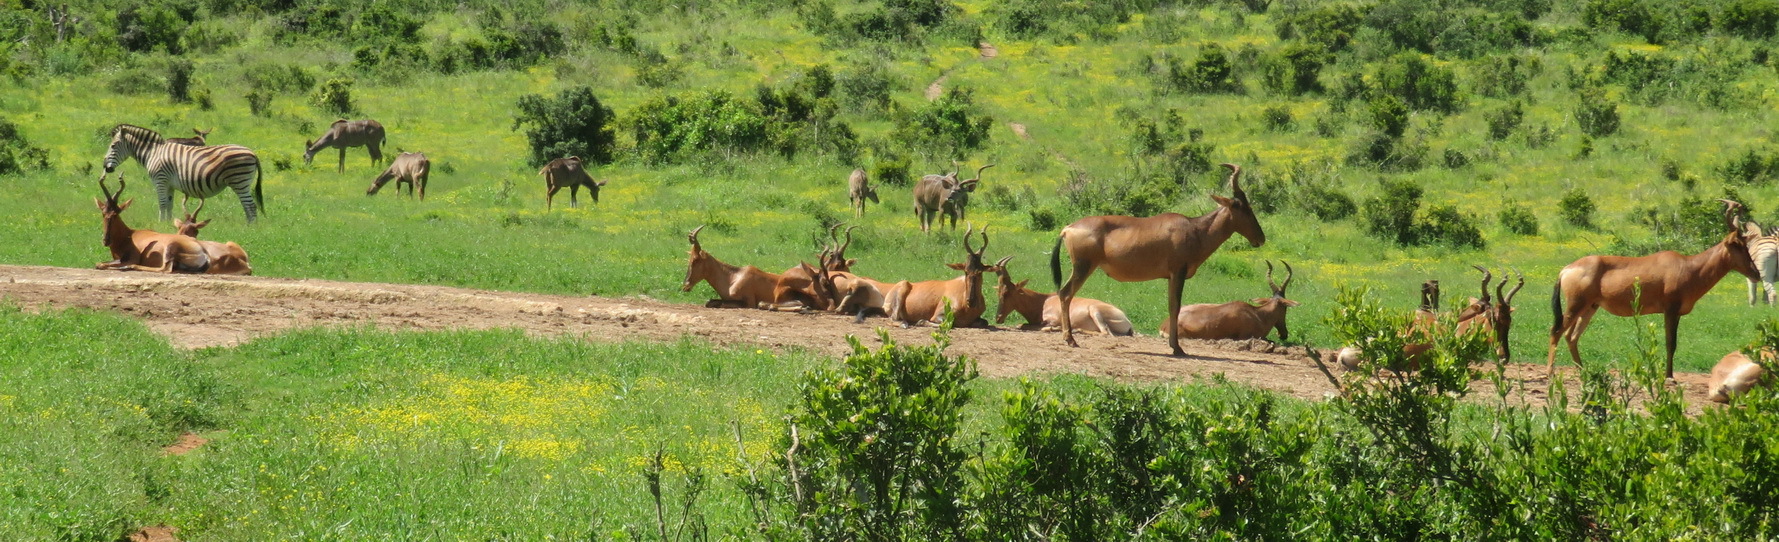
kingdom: Animalia
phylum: Chordata
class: Mammalia
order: Artiodactyla
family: Bovidae
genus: Alcelaphus
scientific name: Alcelaphus caama
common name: Red hartebeest
